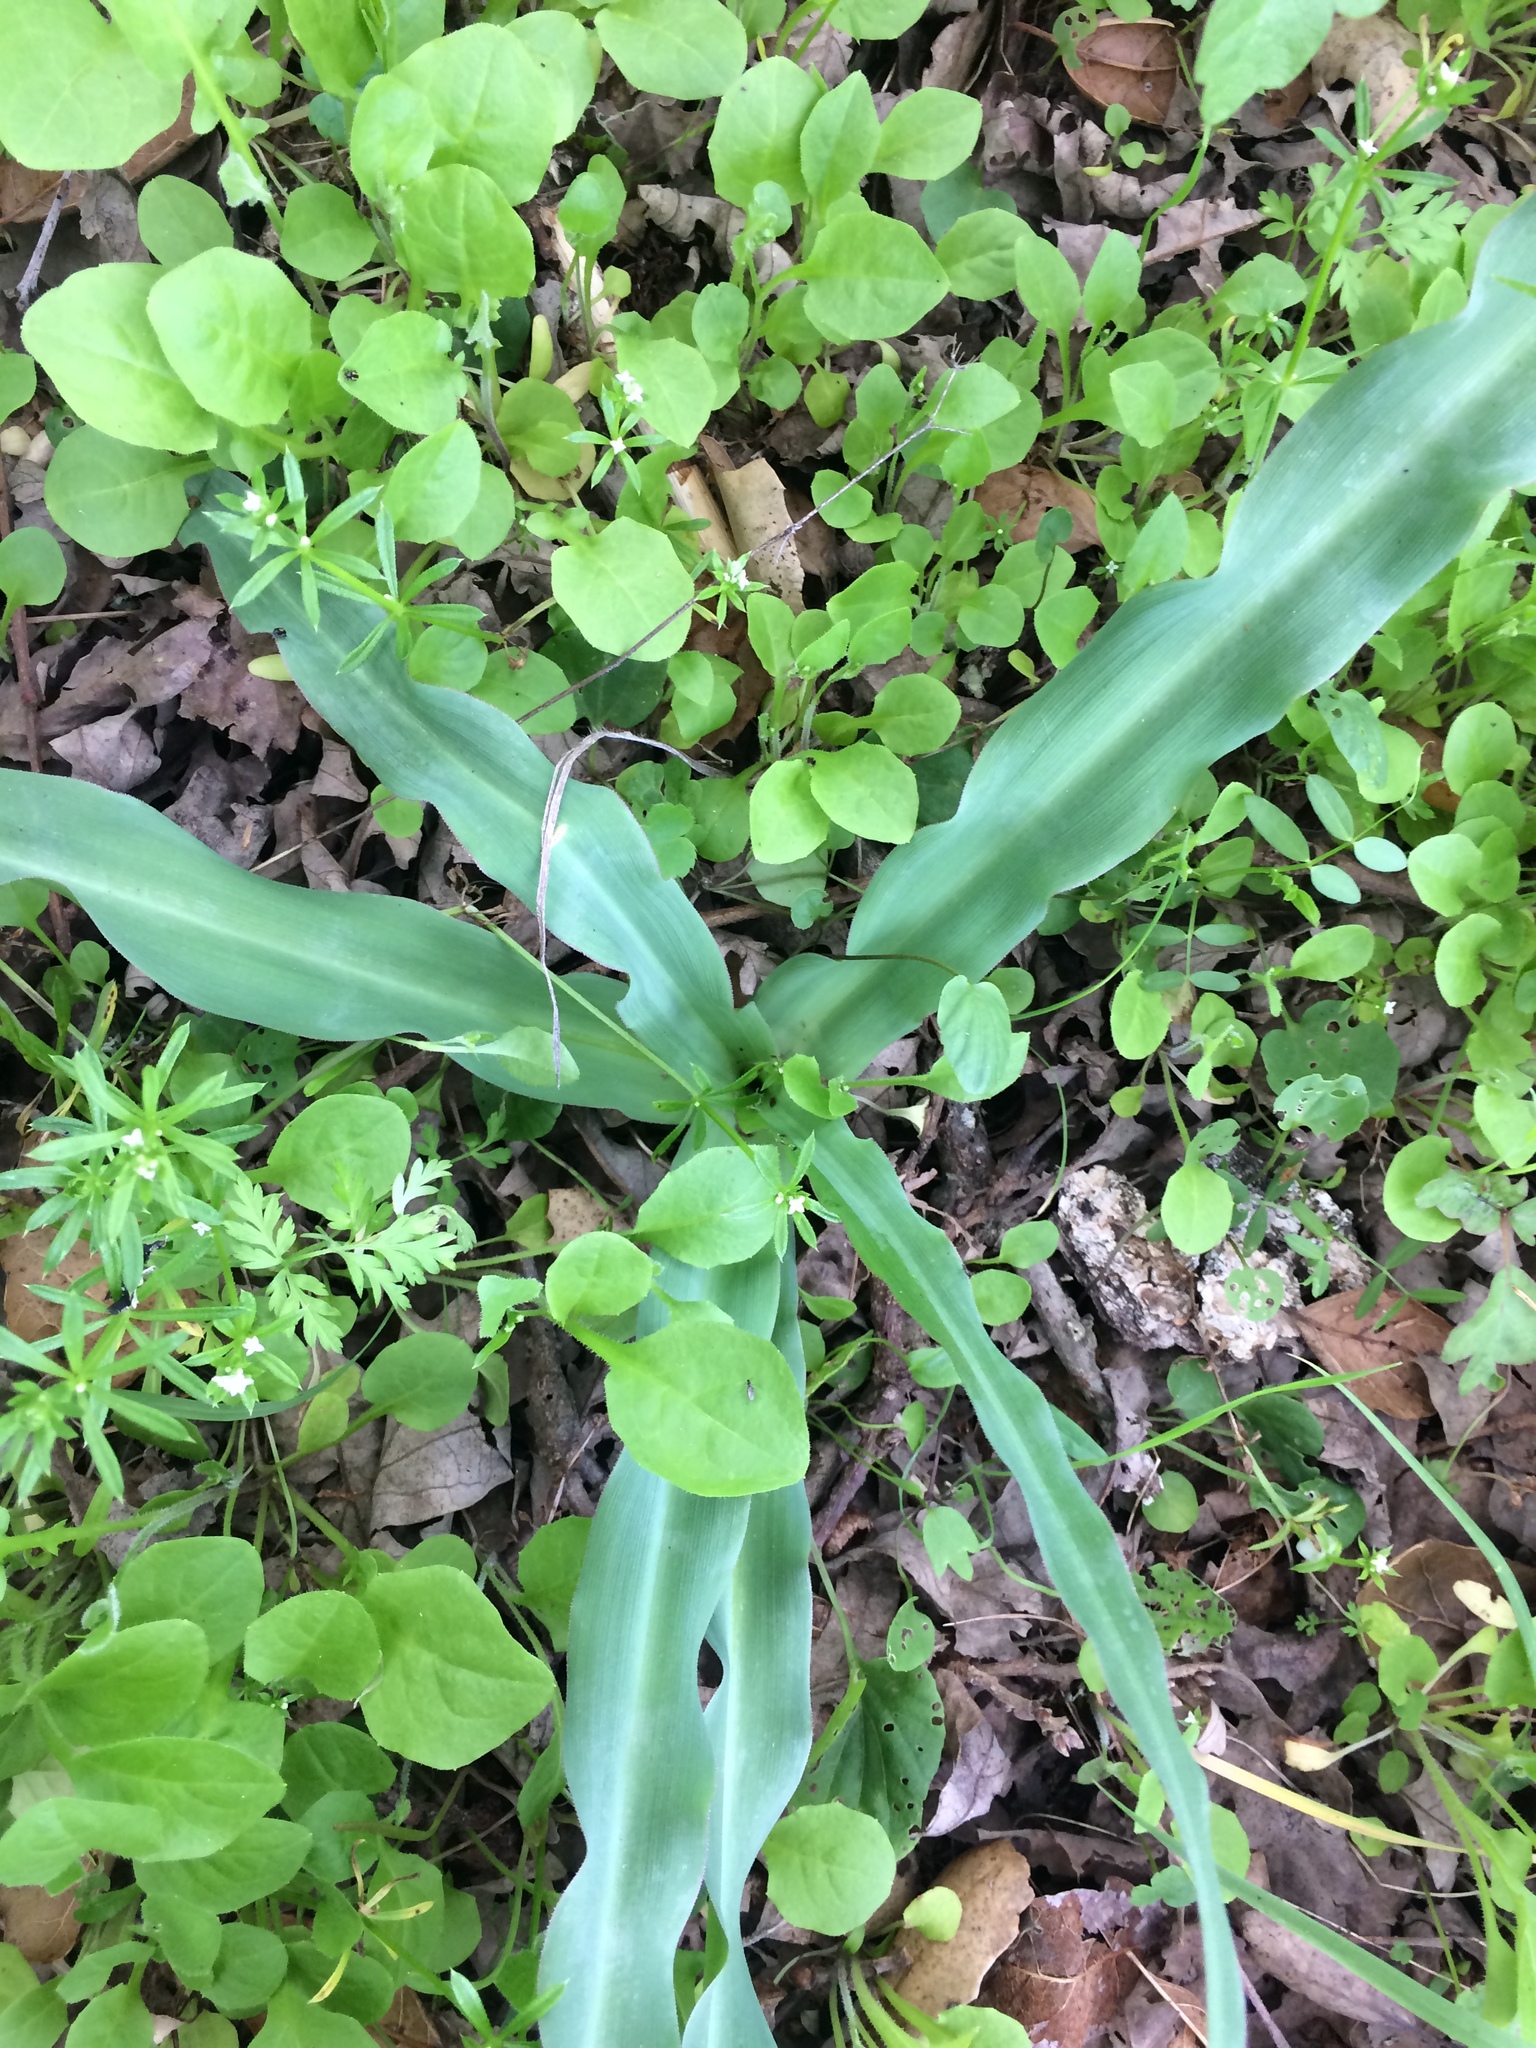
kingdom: Plantae
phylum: Tracheophyta
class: Liliopsida
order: Asparagales
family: Asparagaceae
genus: Chlorogalum
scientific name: Chlorogalum pomeridianum
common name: Amole
